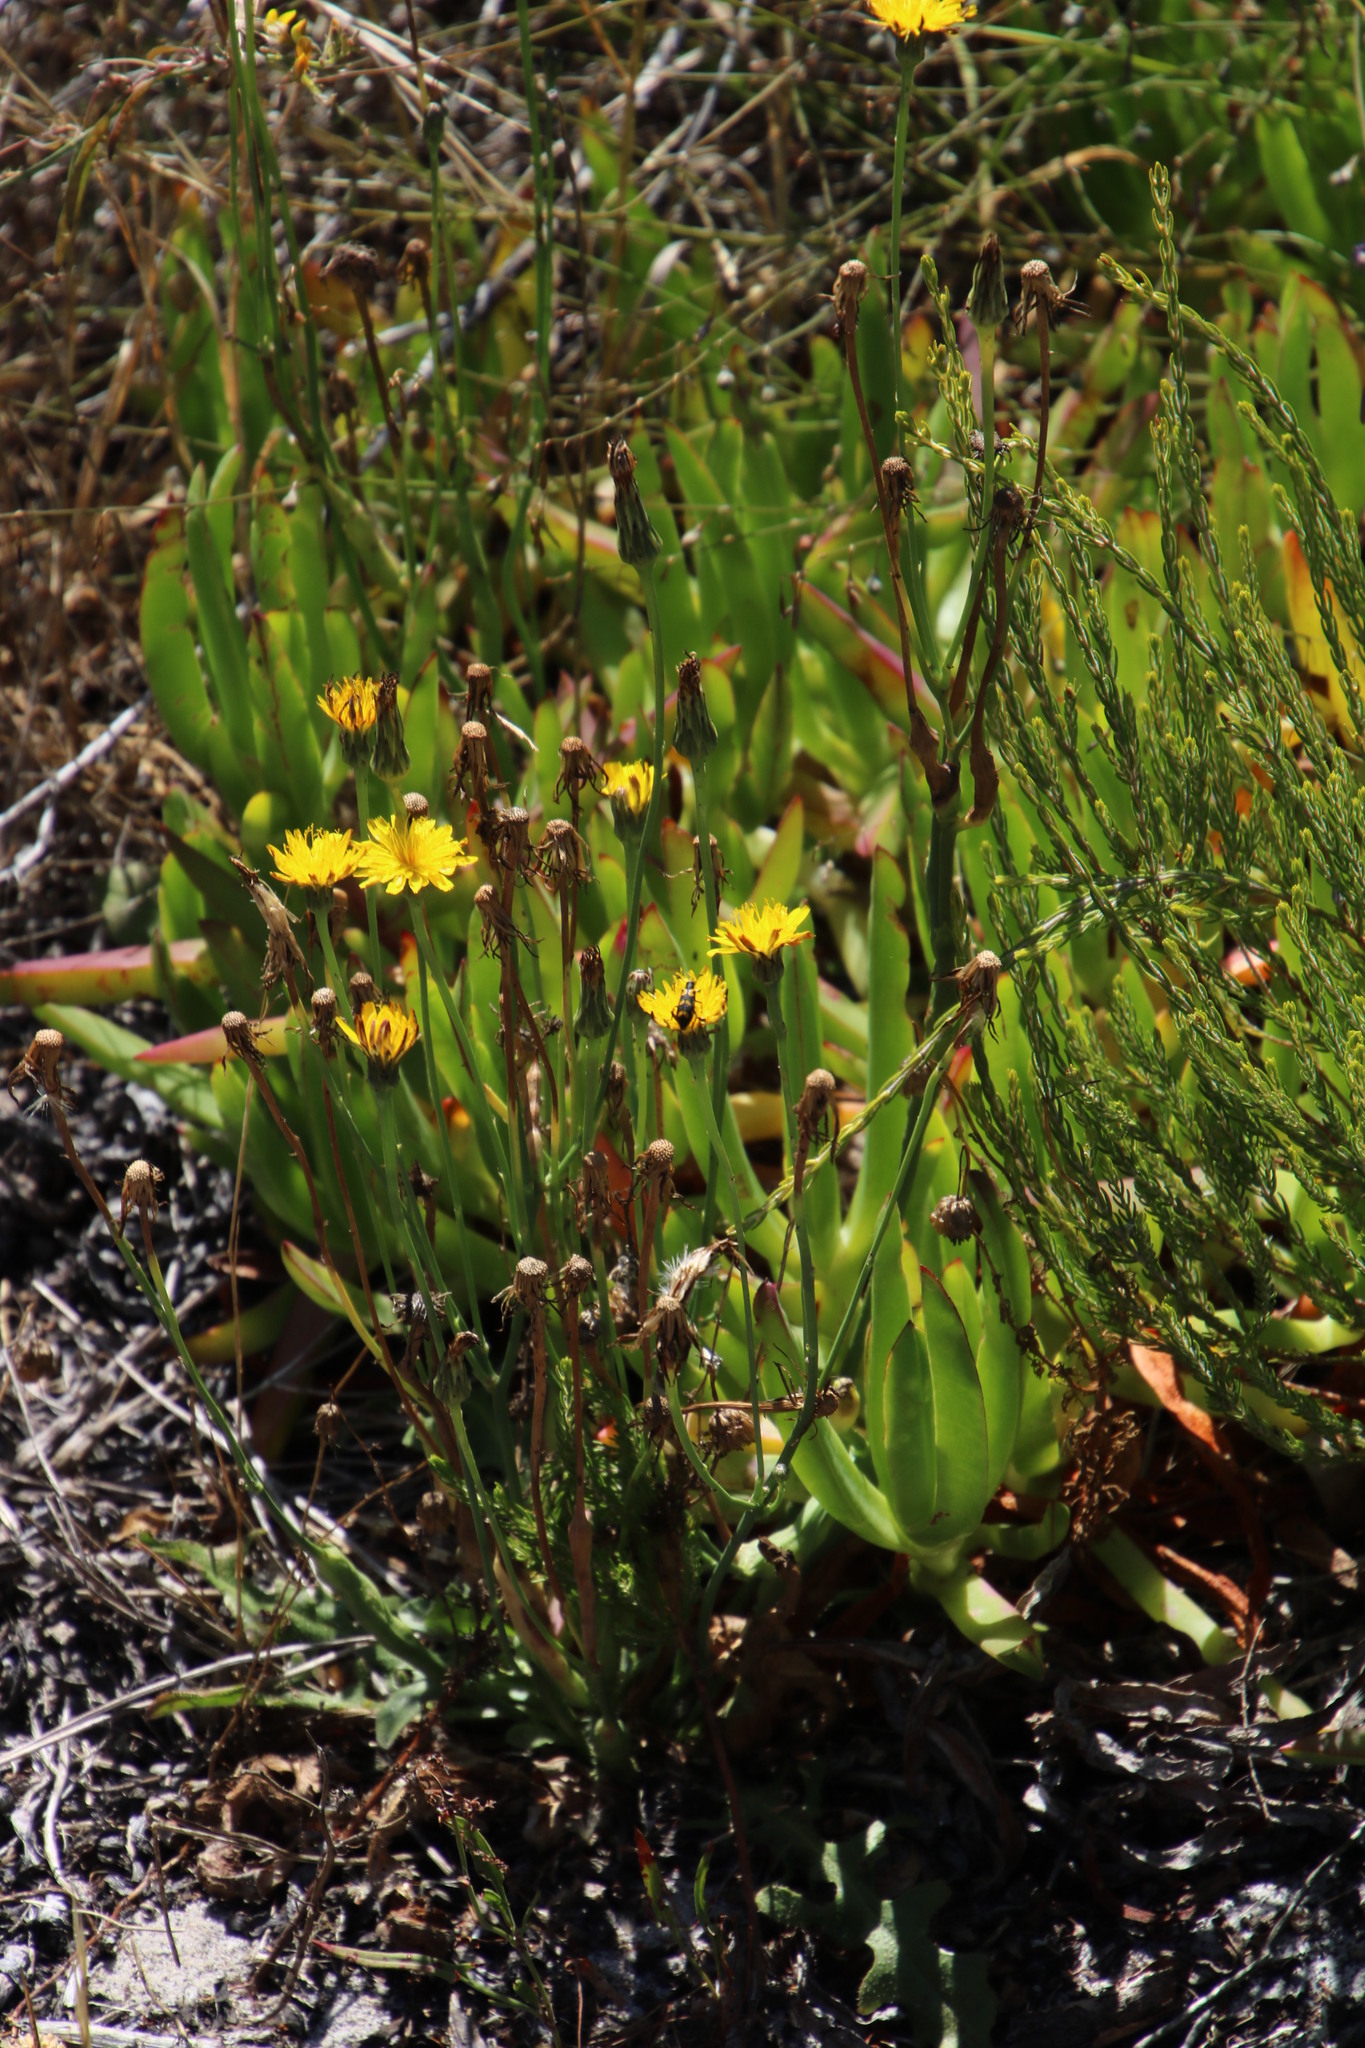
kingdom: Plantae
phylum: Tracheophyta
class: Magnoliopsida
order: Asterales
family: Asteraceae
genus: Hypochaeris
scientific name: Hypochaeris radicata
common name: Flatweed
